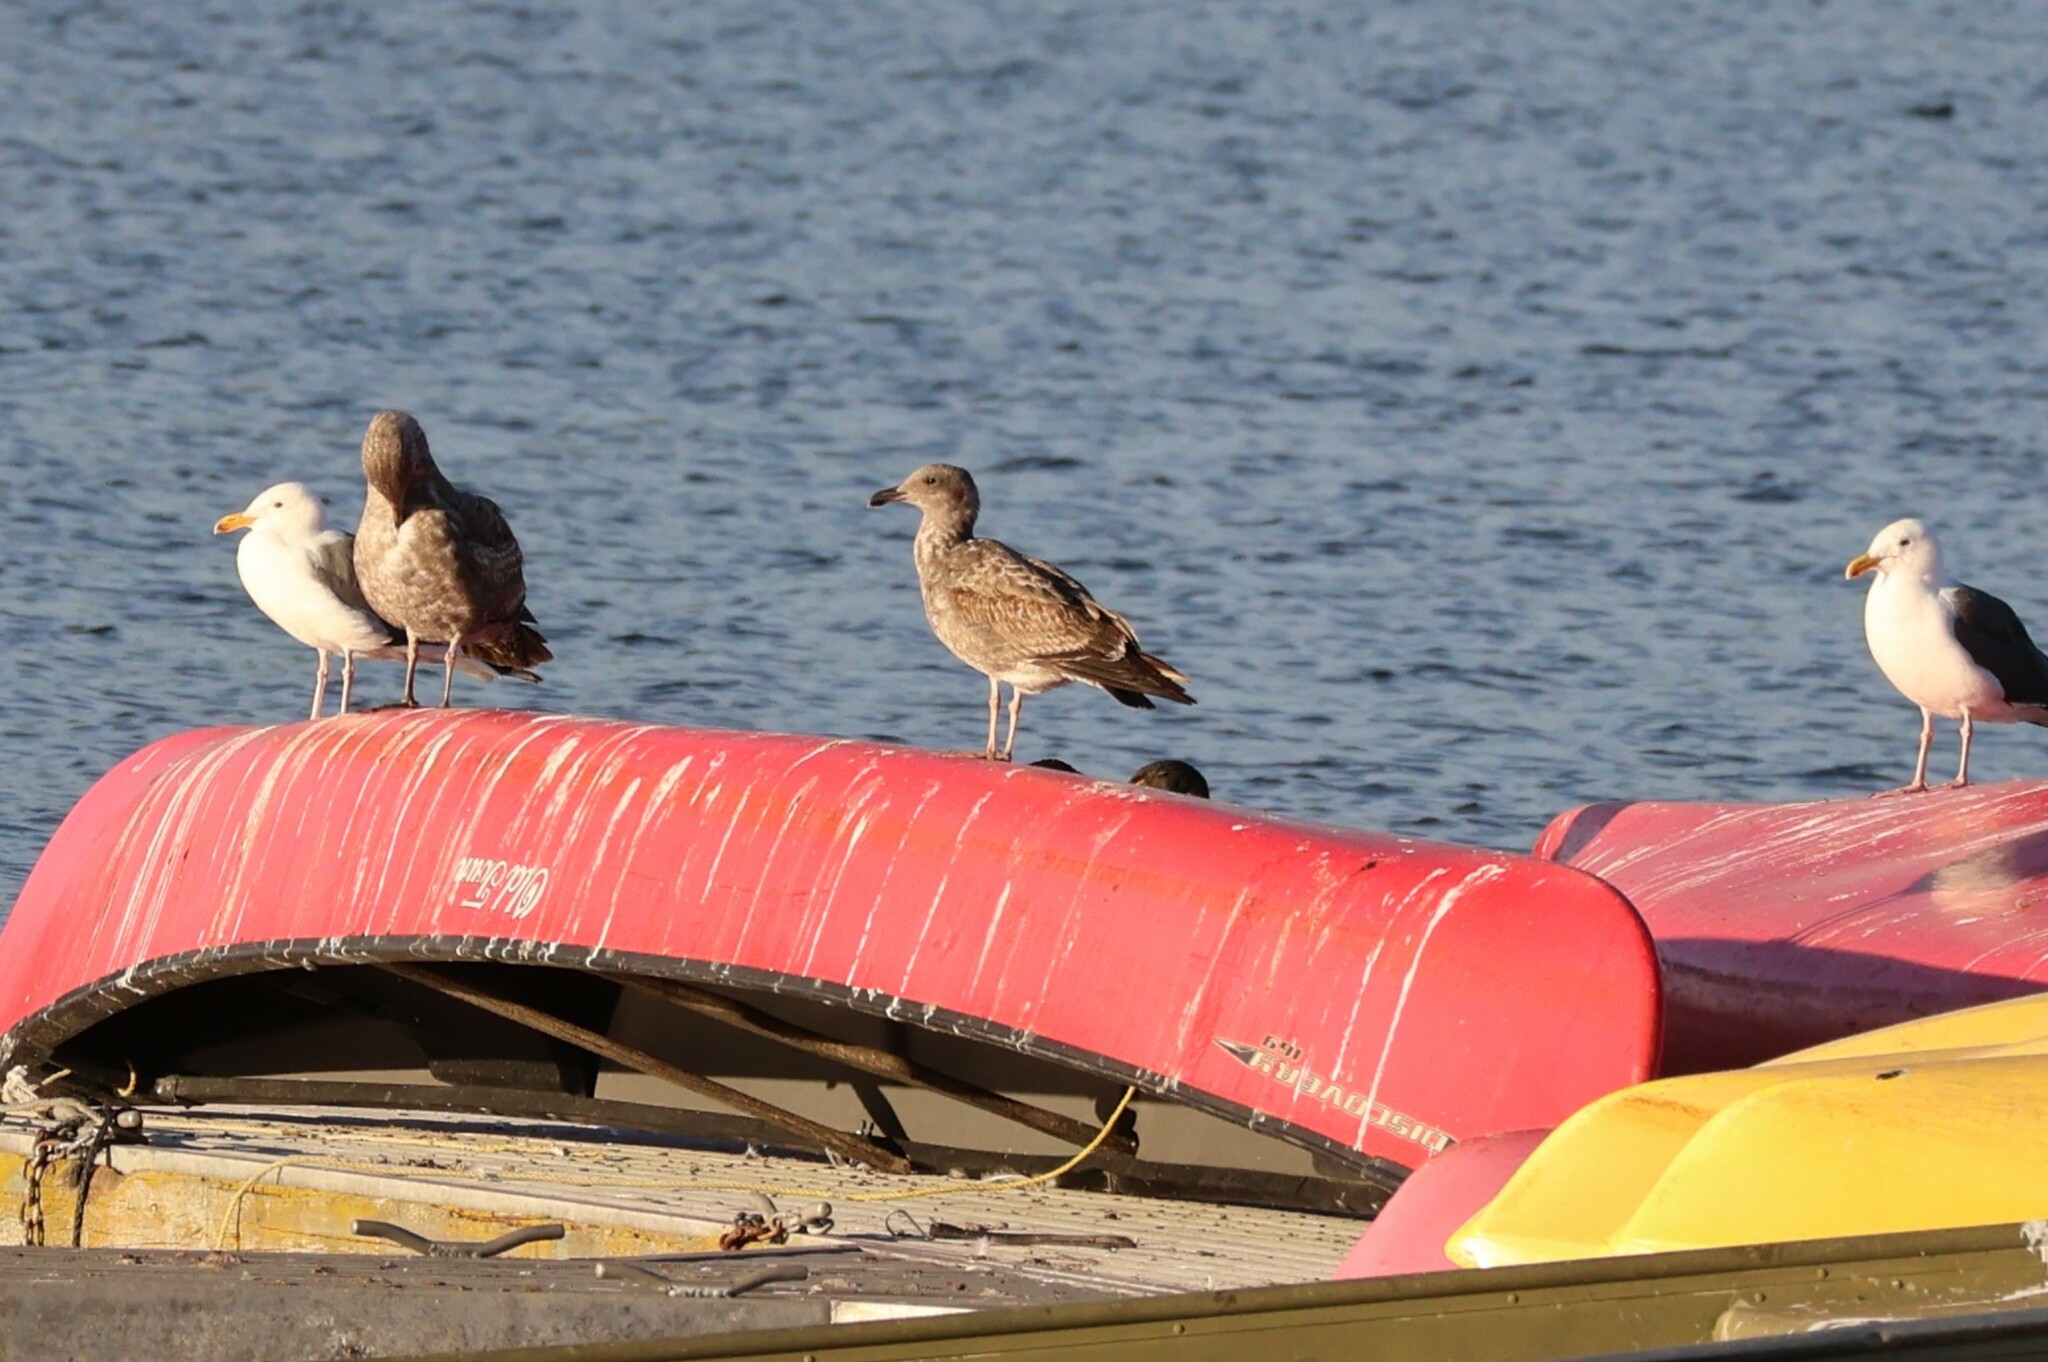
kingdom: Animalia
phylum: Chordata
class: Aves
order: Charadriiformes
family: Laridae
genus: Larus
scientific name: Larus occidentalis
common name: Western gull
